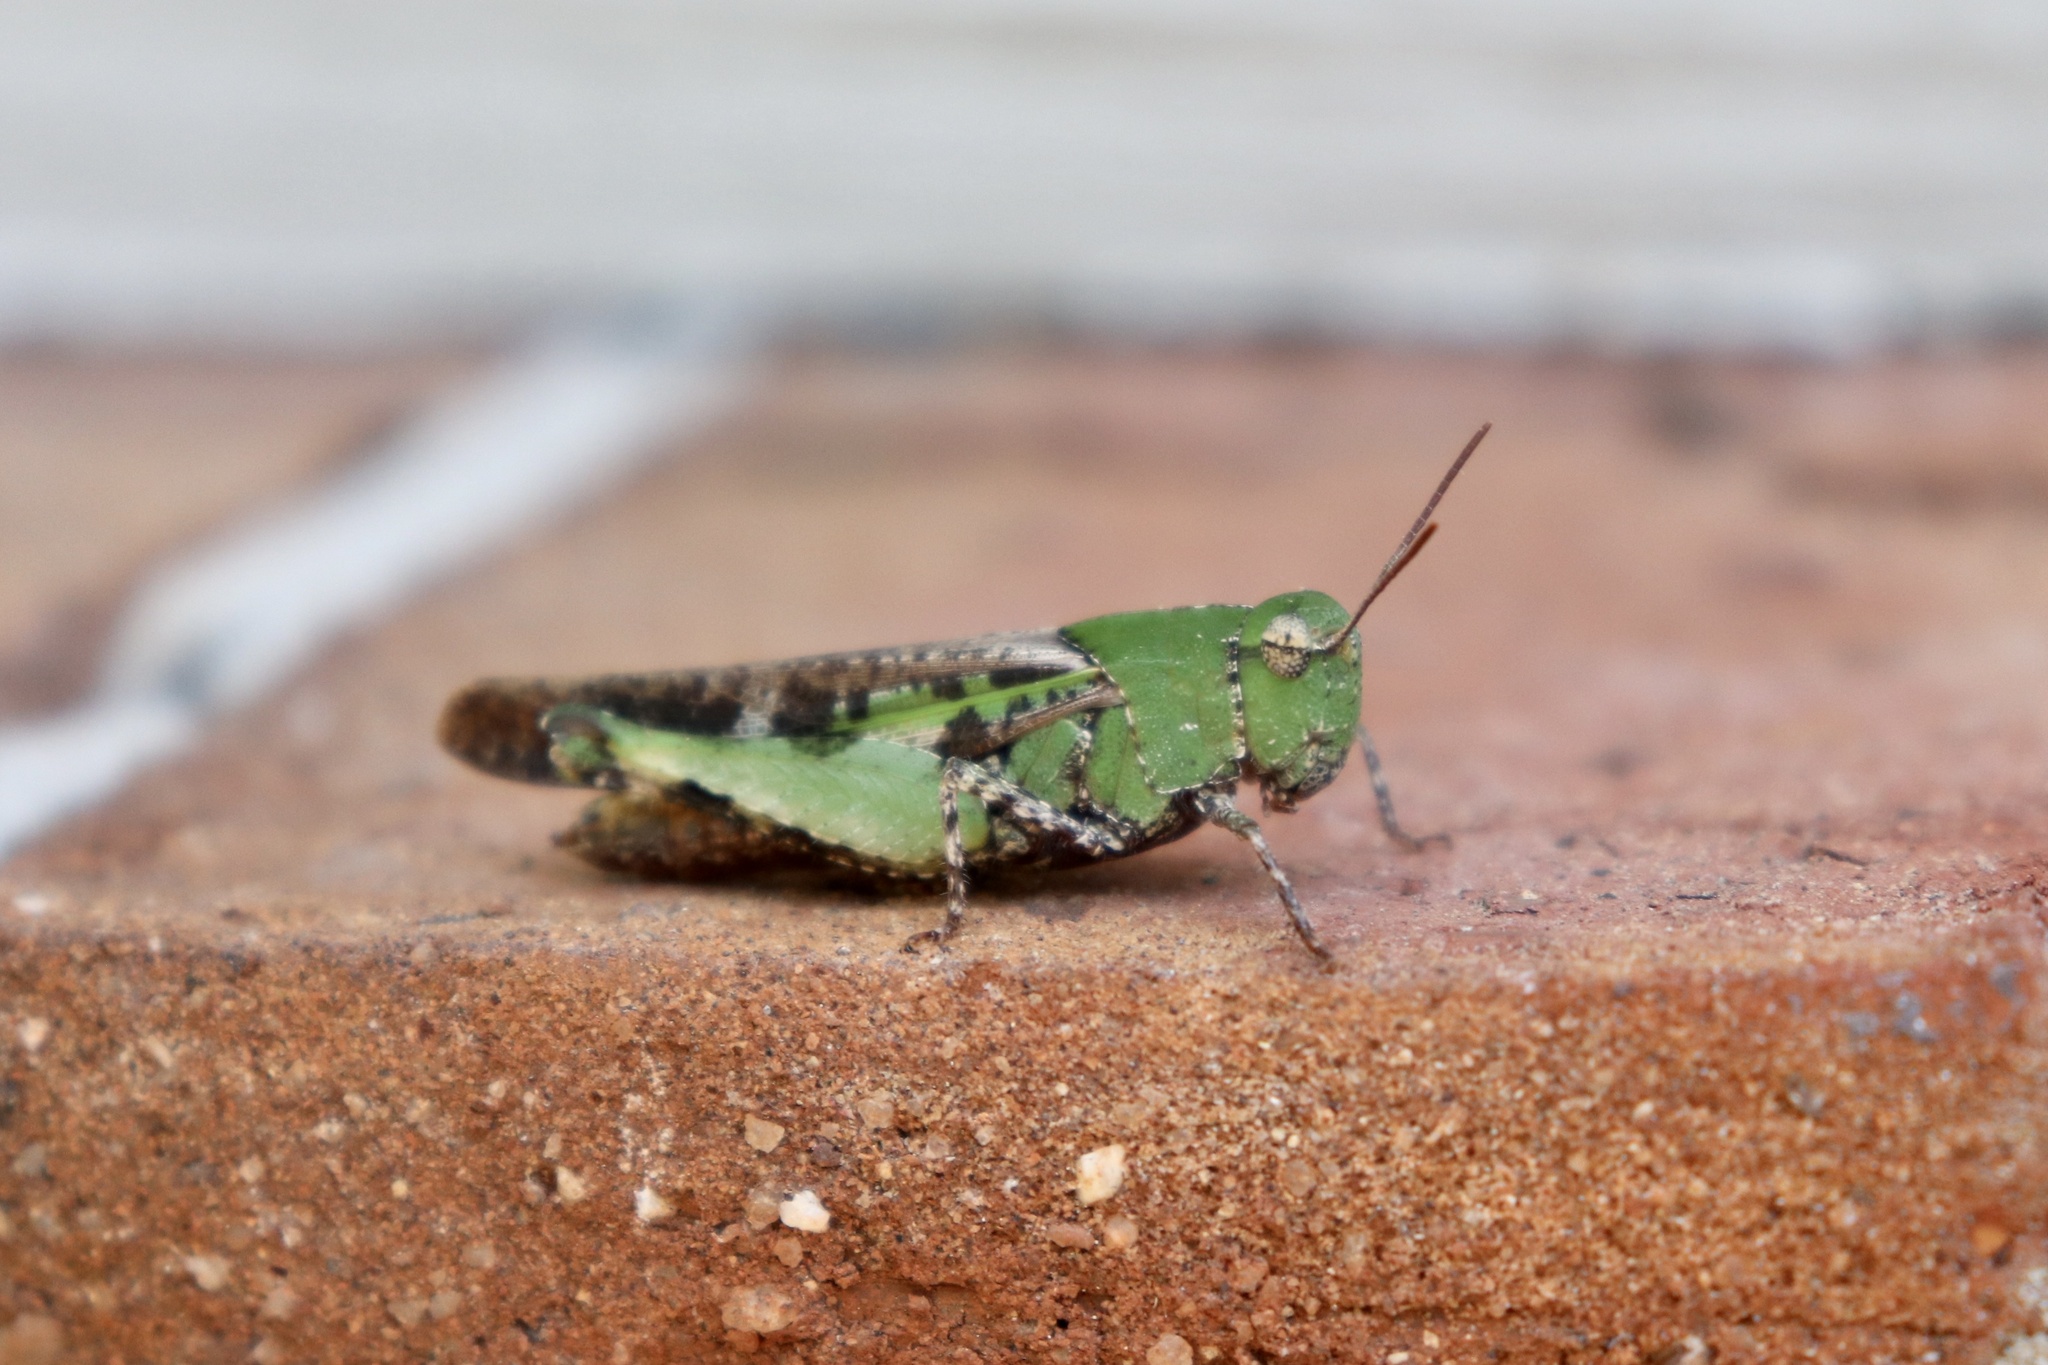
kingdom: Animalia
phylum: Arthropoda
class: Insecta
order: Orthoptera
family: Acrididae
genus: Chortophaga
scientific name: Chortophaga viridifasciata
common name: Green-striped grasshopper
